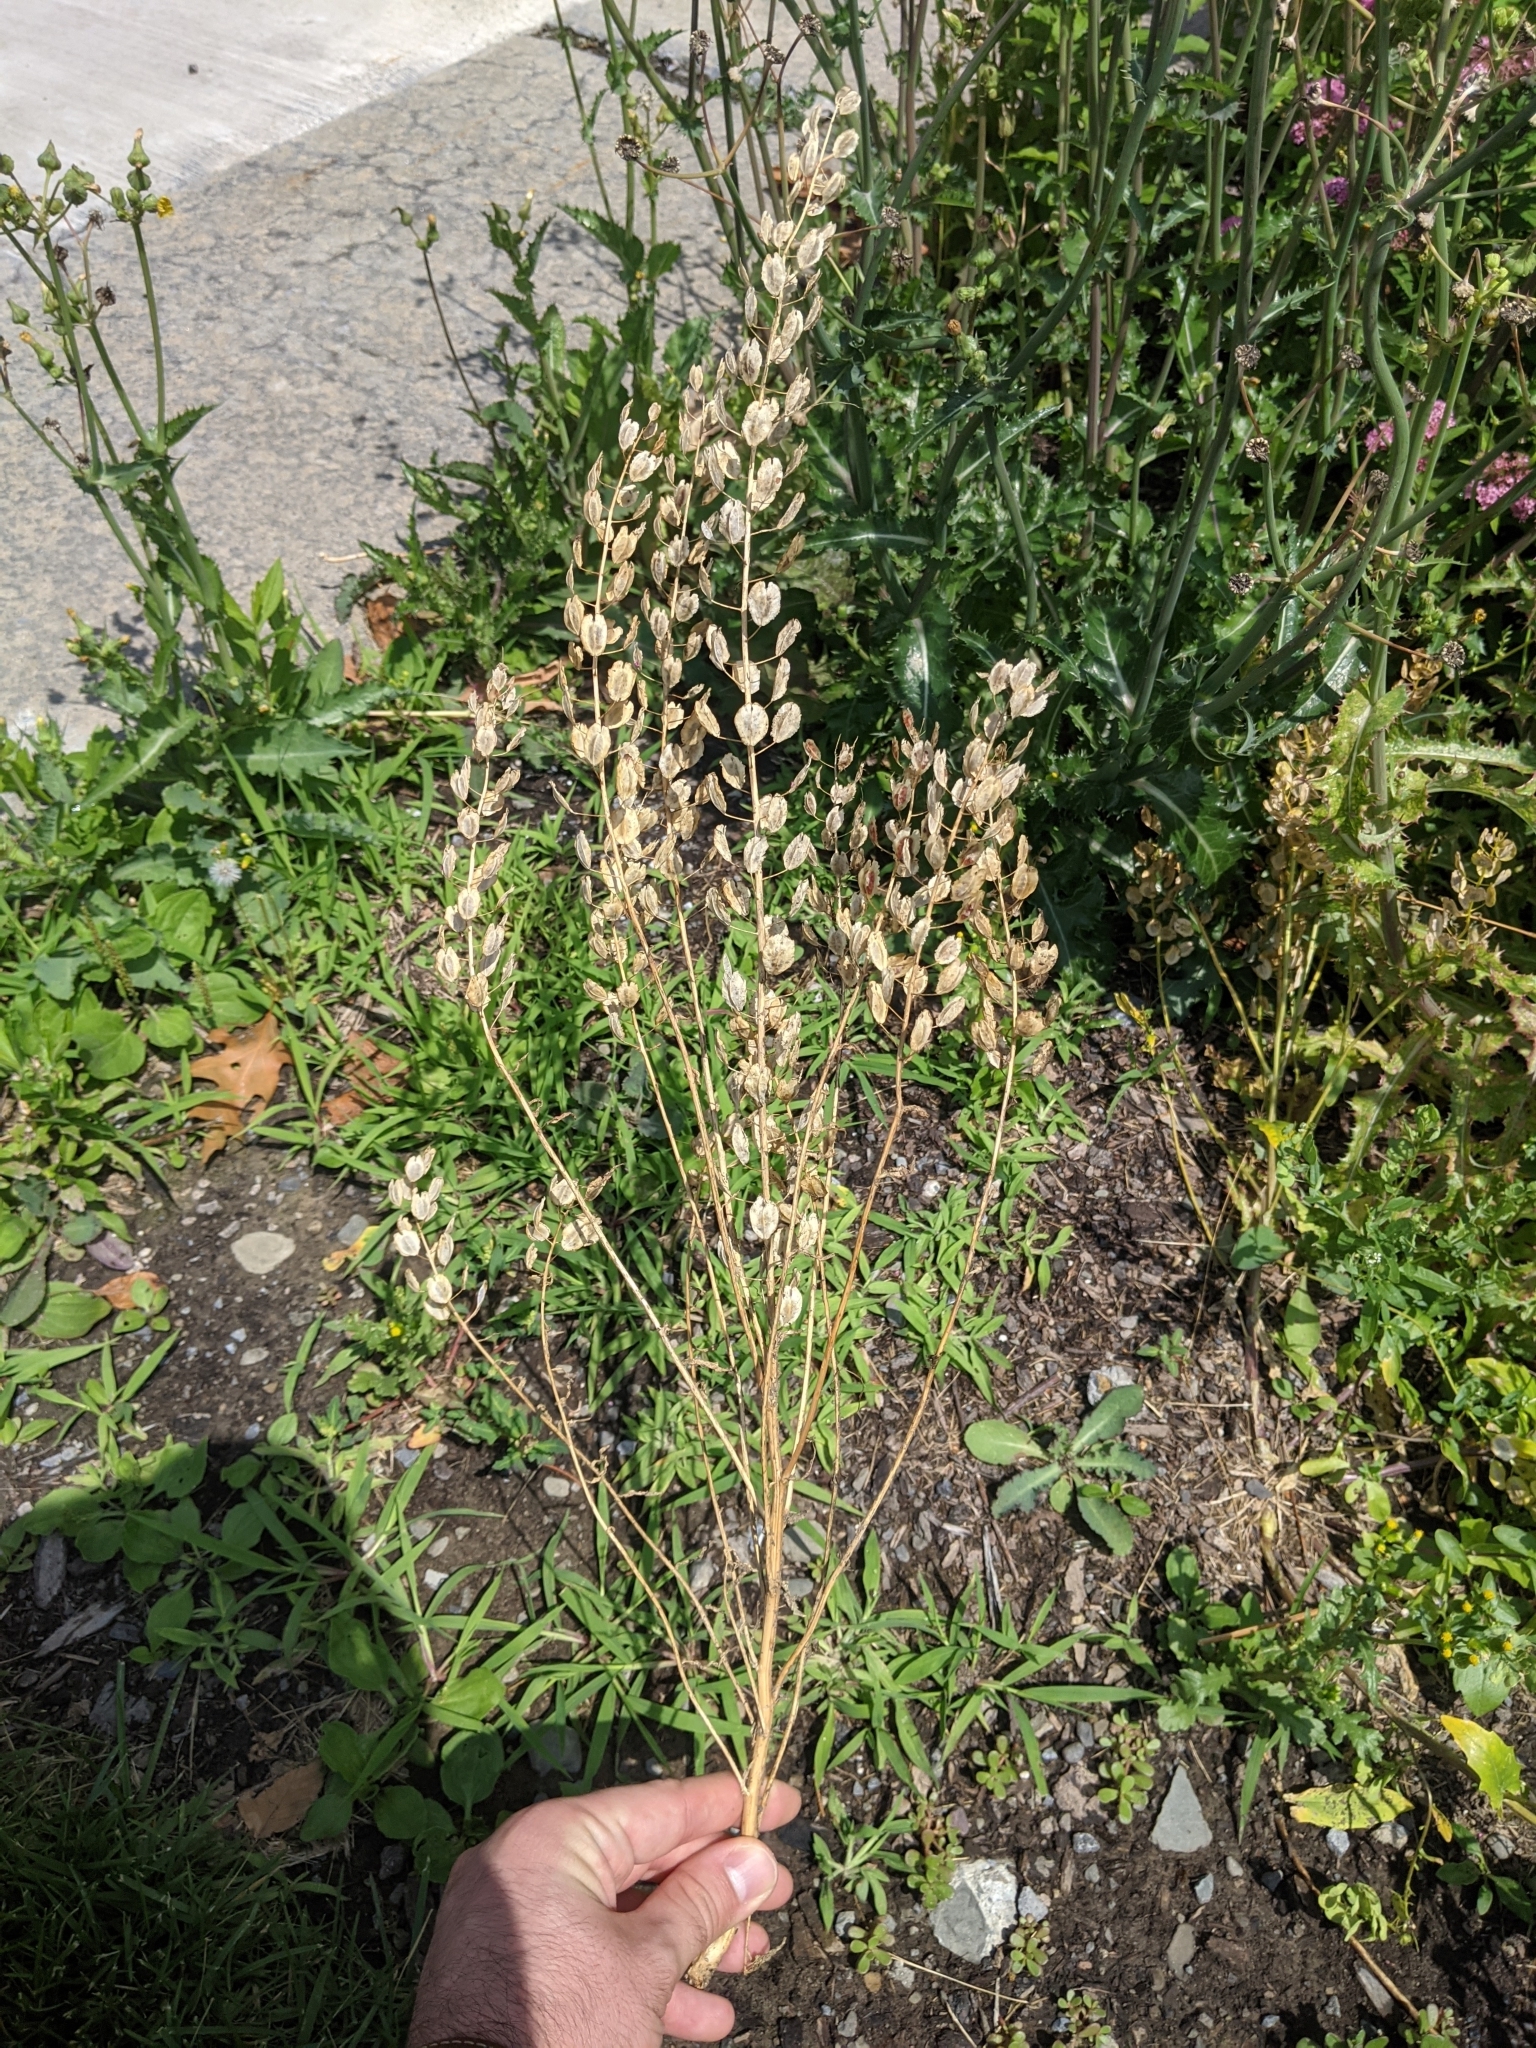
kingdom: Plantae
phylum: Tracheophyta
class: Magnoliopsida
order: Brassicales
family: Brassicaceae
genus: Thlaspi
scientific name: Thlaspi arvense
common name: Field pennycress
